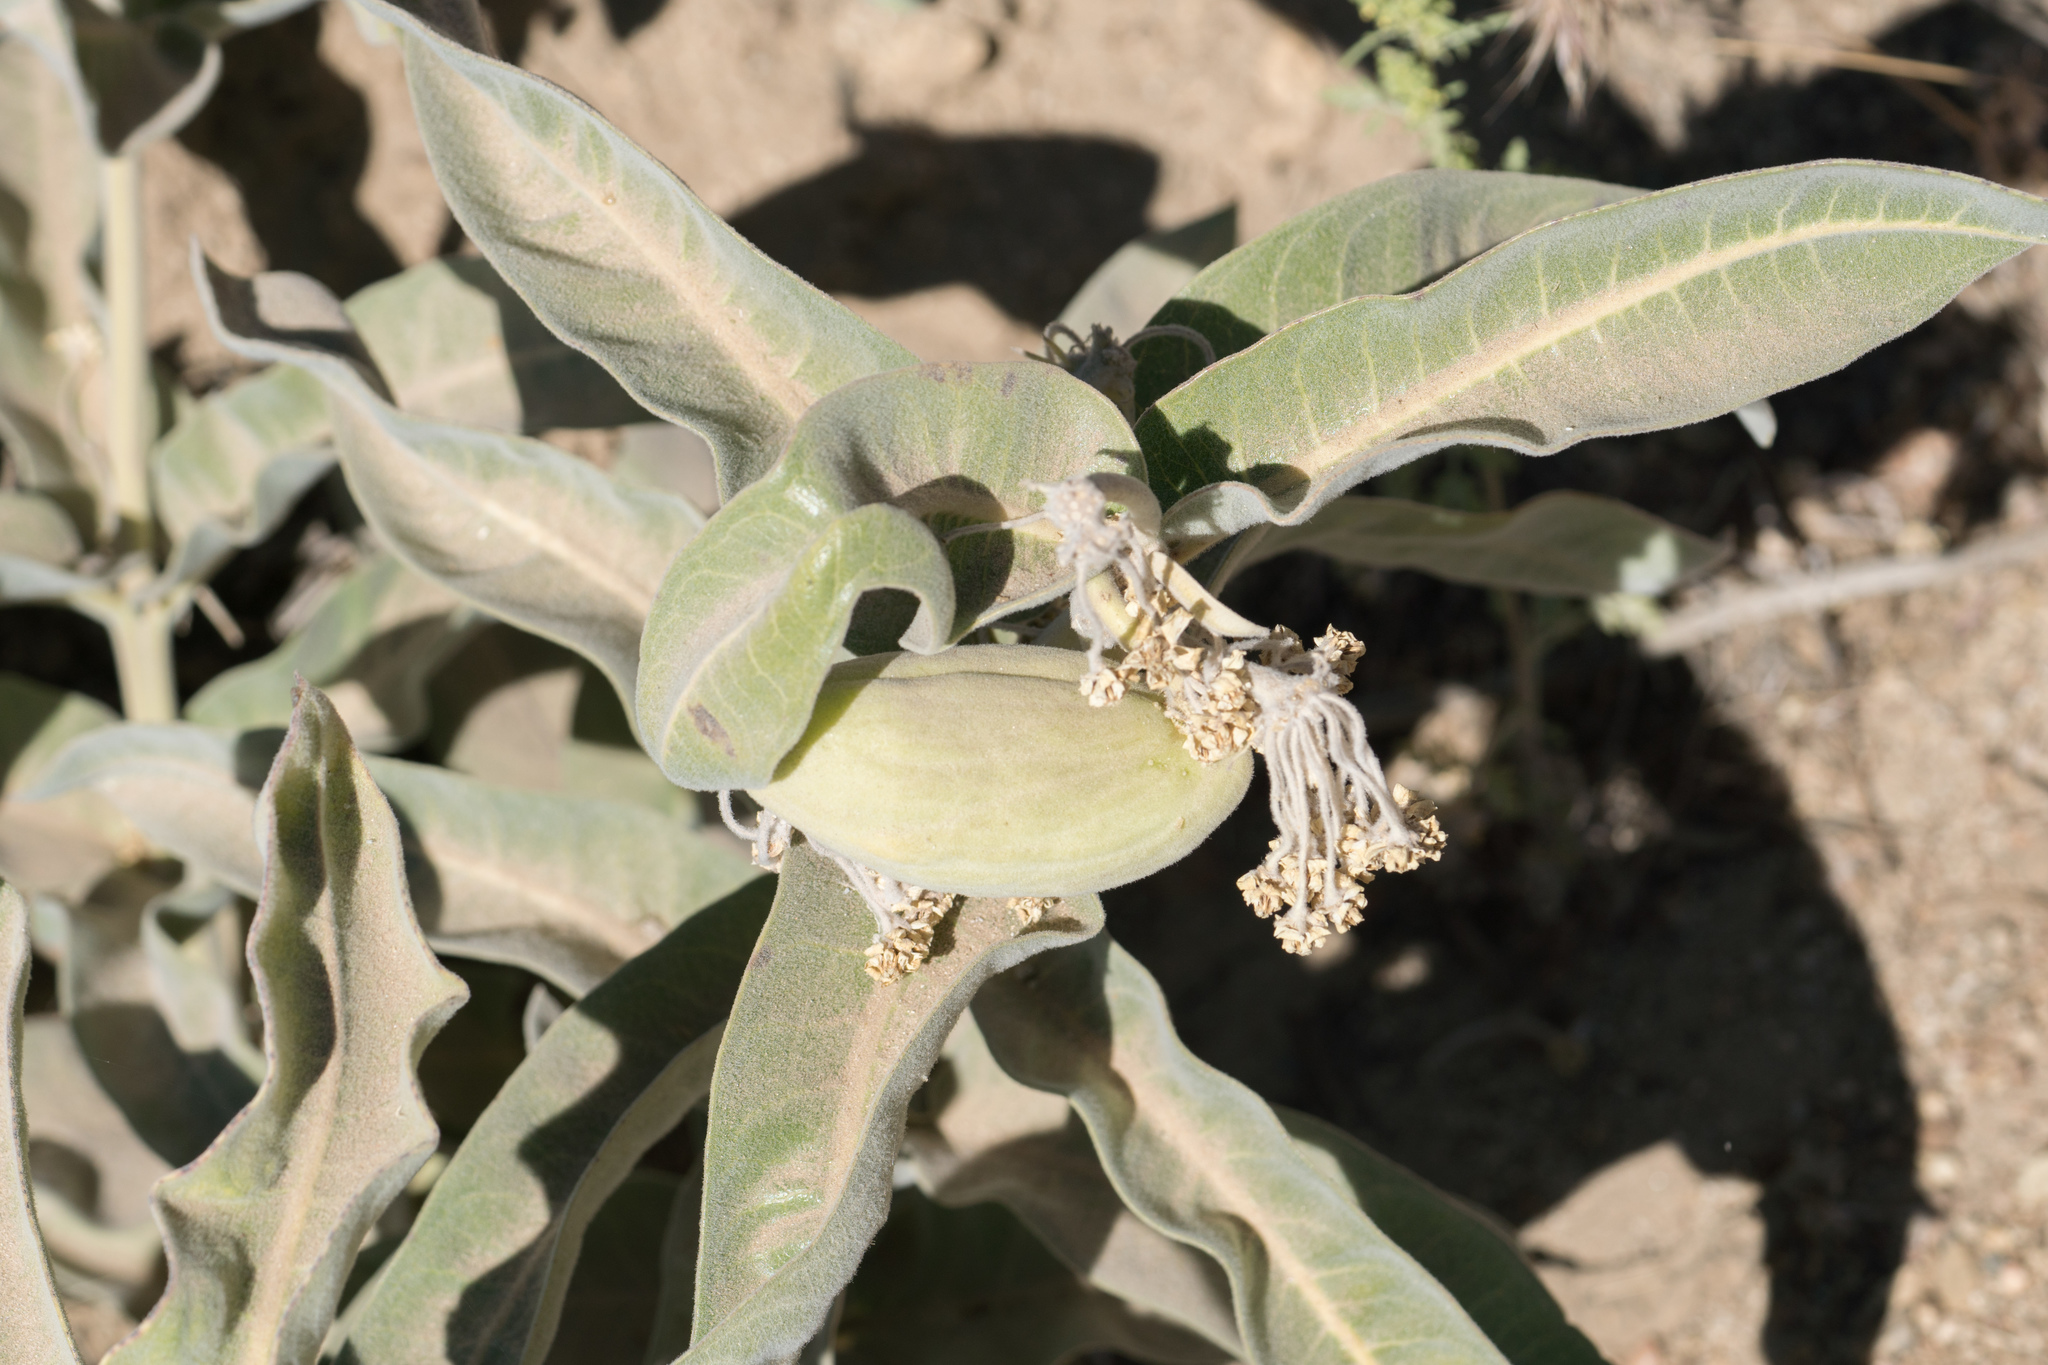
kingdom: Plantae
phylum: Tracheophyta
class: Magnoliopsida
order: Gentianales
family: Apocynaceae
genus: Asclepias
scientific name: Asclepias eriocarpa
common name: Indian milkweed
